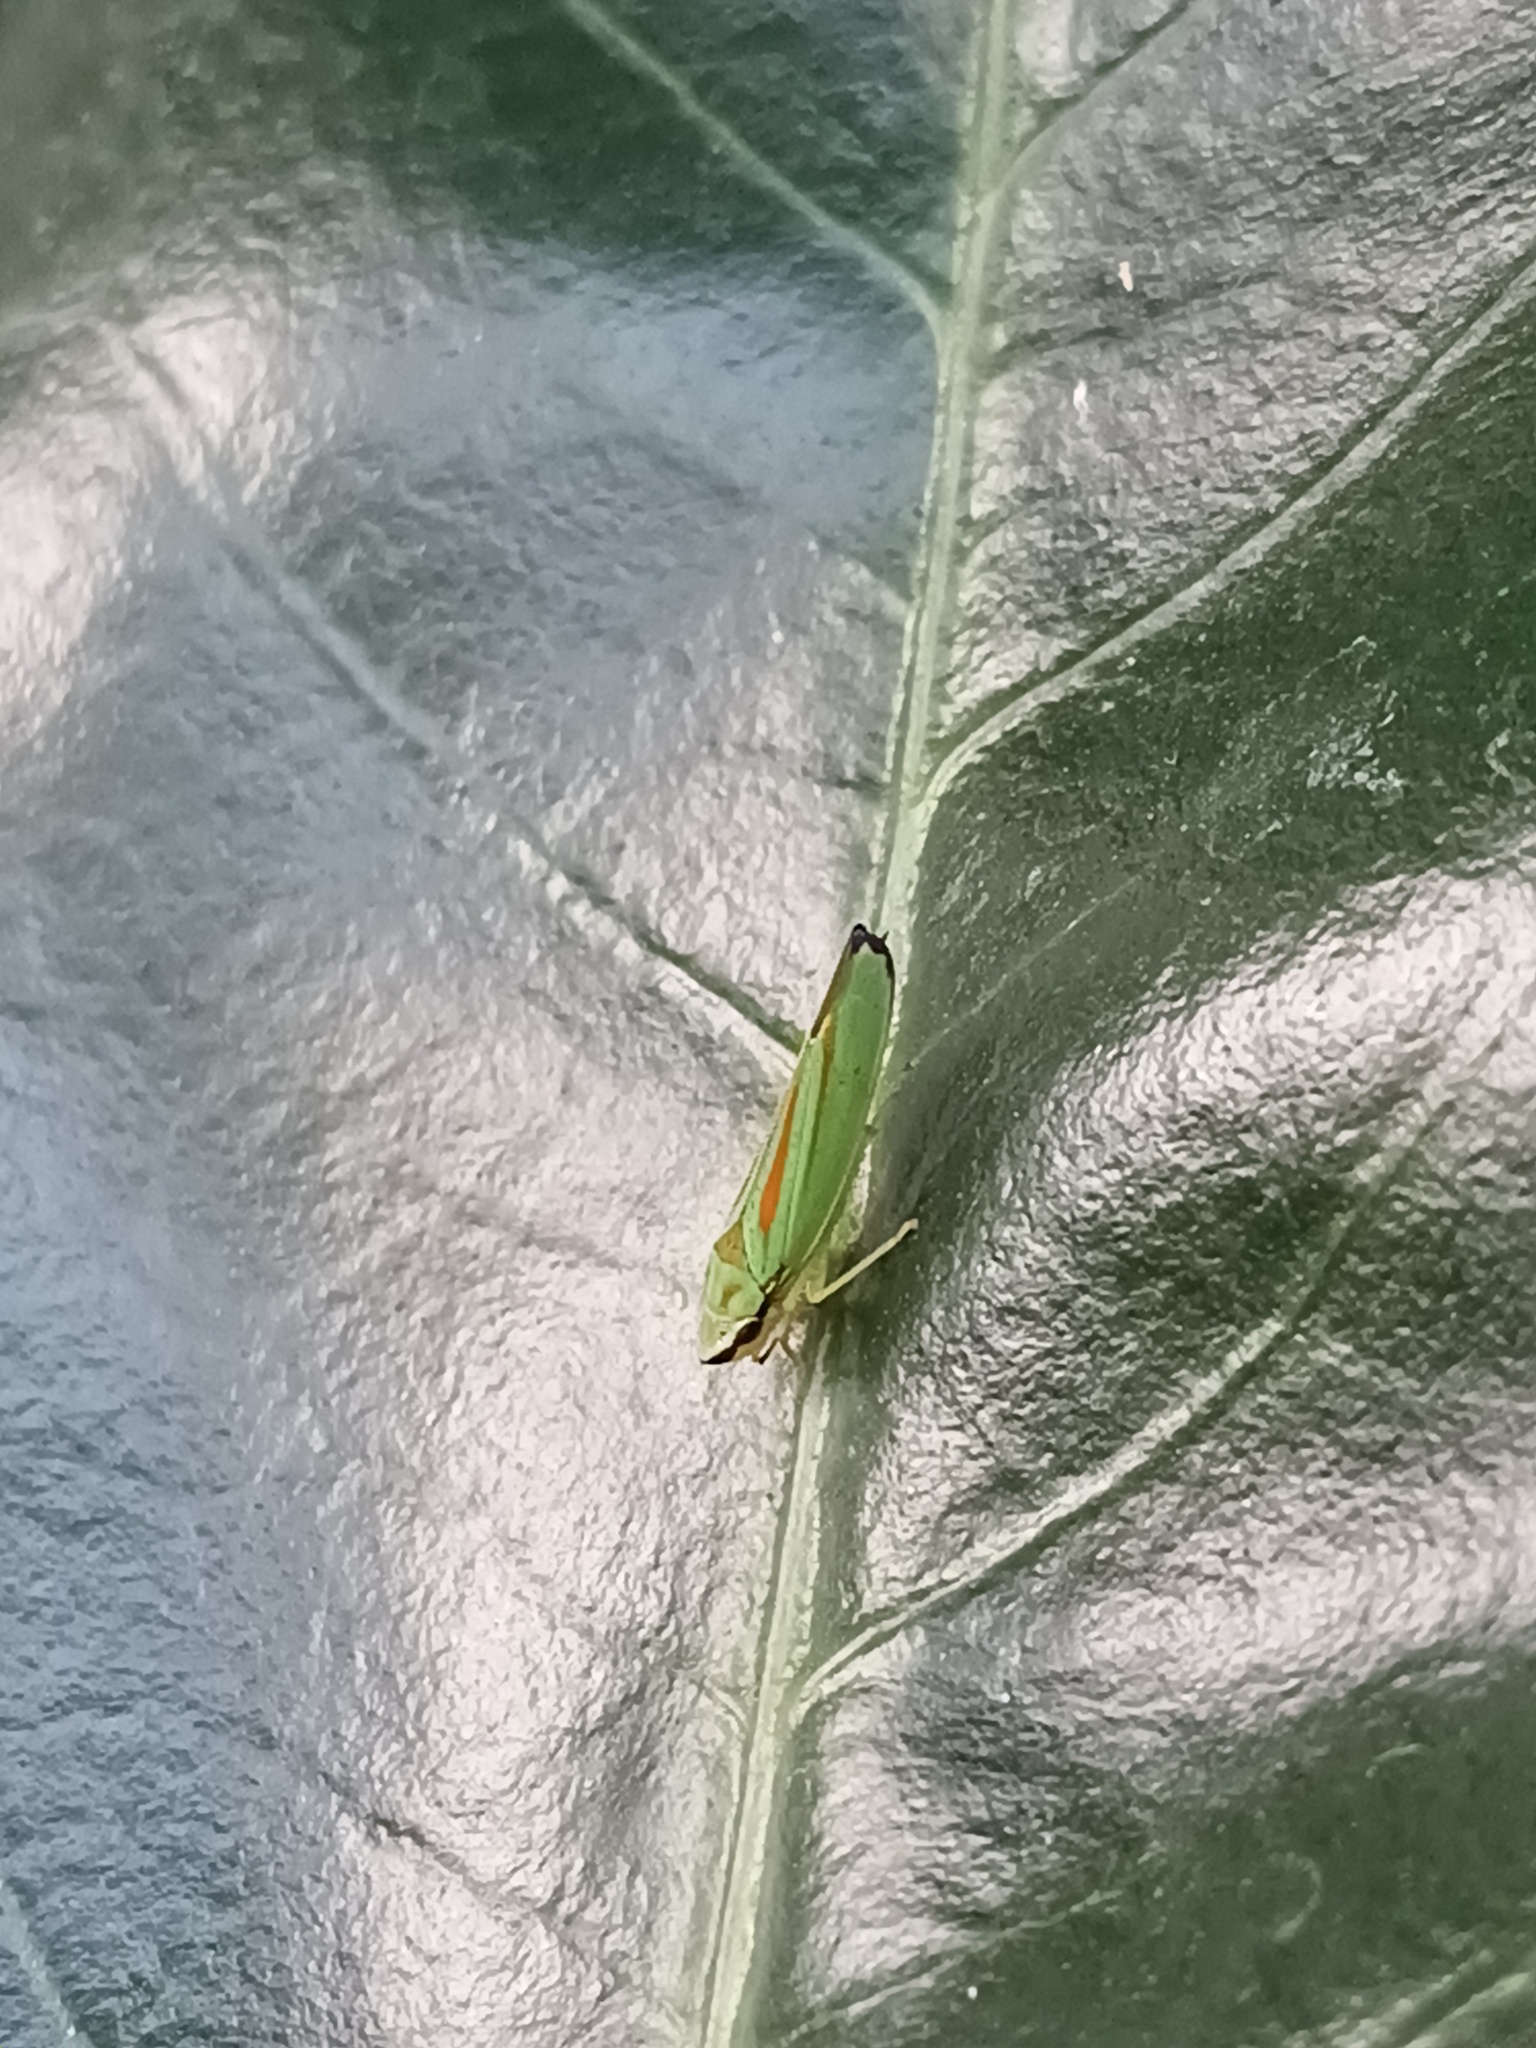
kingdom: Animalia
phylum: Arthropoda
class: Insecta
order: Hemiptera
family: Cicadellidae
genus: Graphocephala
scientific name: Graphocephala fennahi
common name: Rhododendron leafhopper
